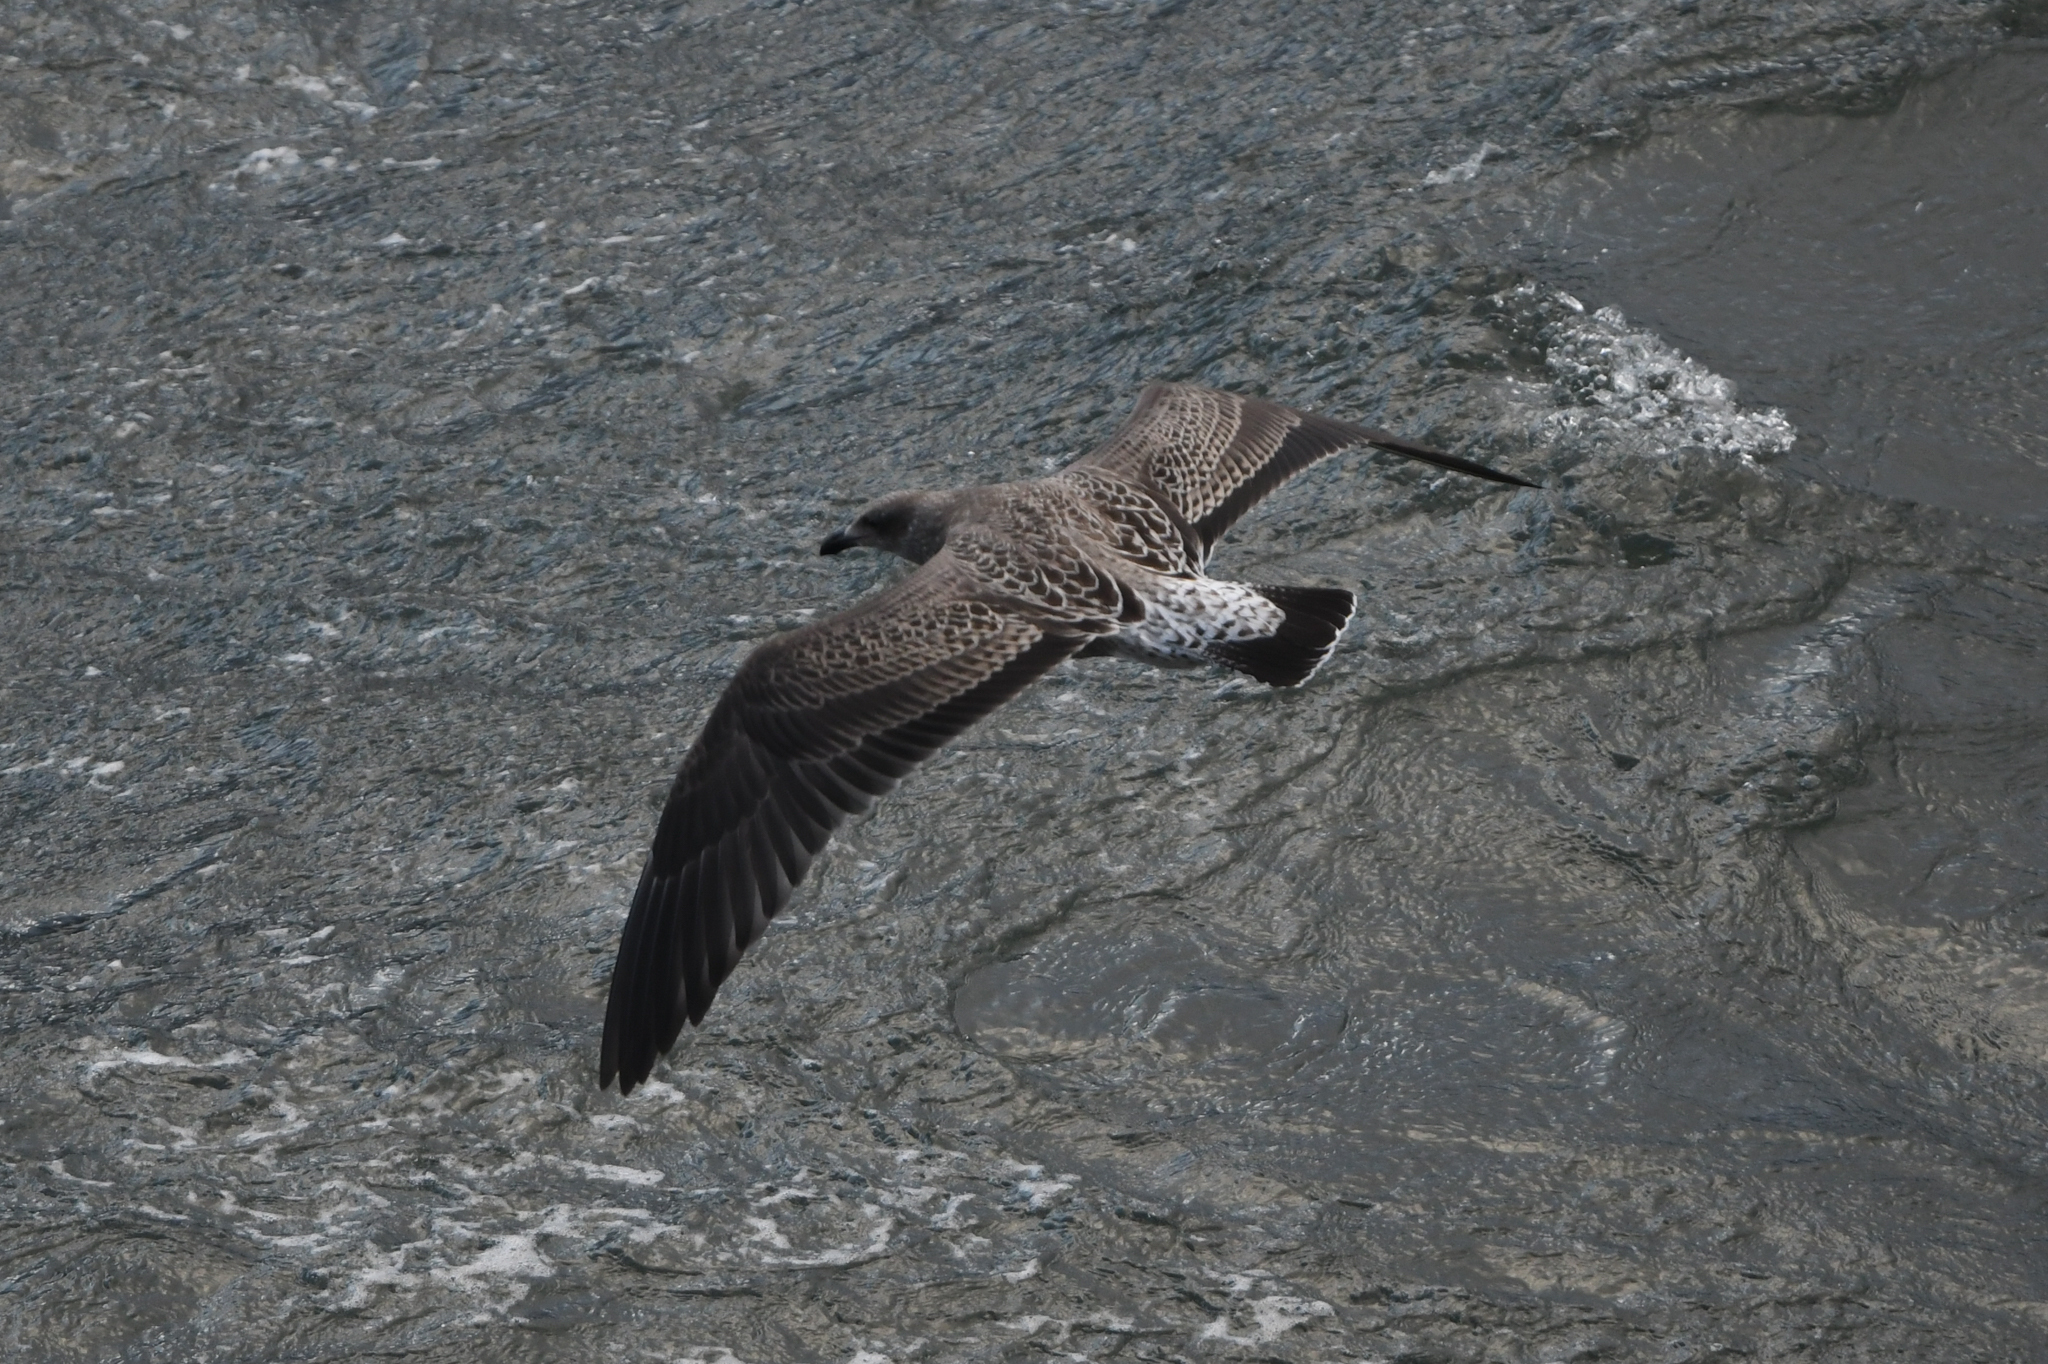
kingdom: Animalia
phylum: Chordata
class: Aves
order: Charadriiformes
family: Laridae
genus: Larus
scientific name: Larus dominicanus
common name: Kelp gull
